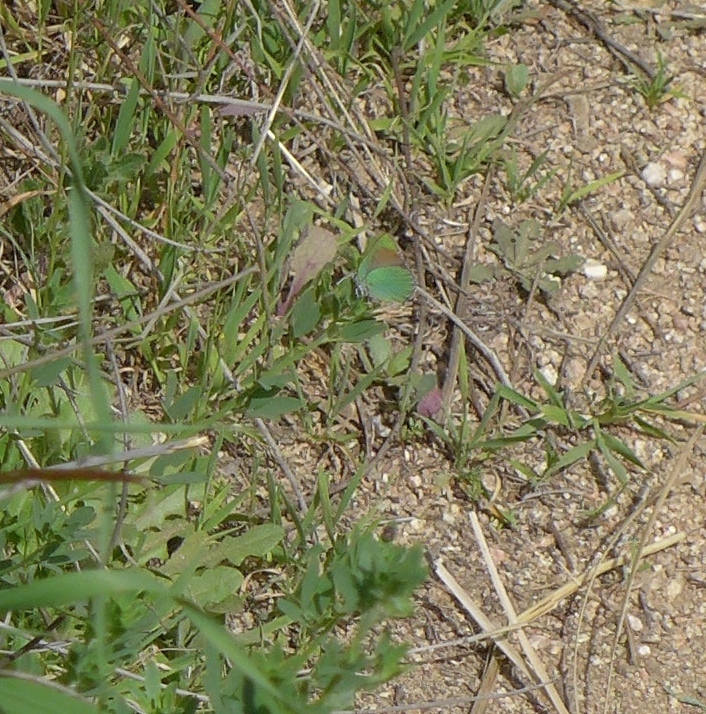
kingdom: Animalia
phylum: Arthropoda
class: Insecta
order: Lepidoptera
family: Lycaenidae
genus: Callophrys
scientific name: Callophrys dumetorum
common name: Bramble hairstreak
